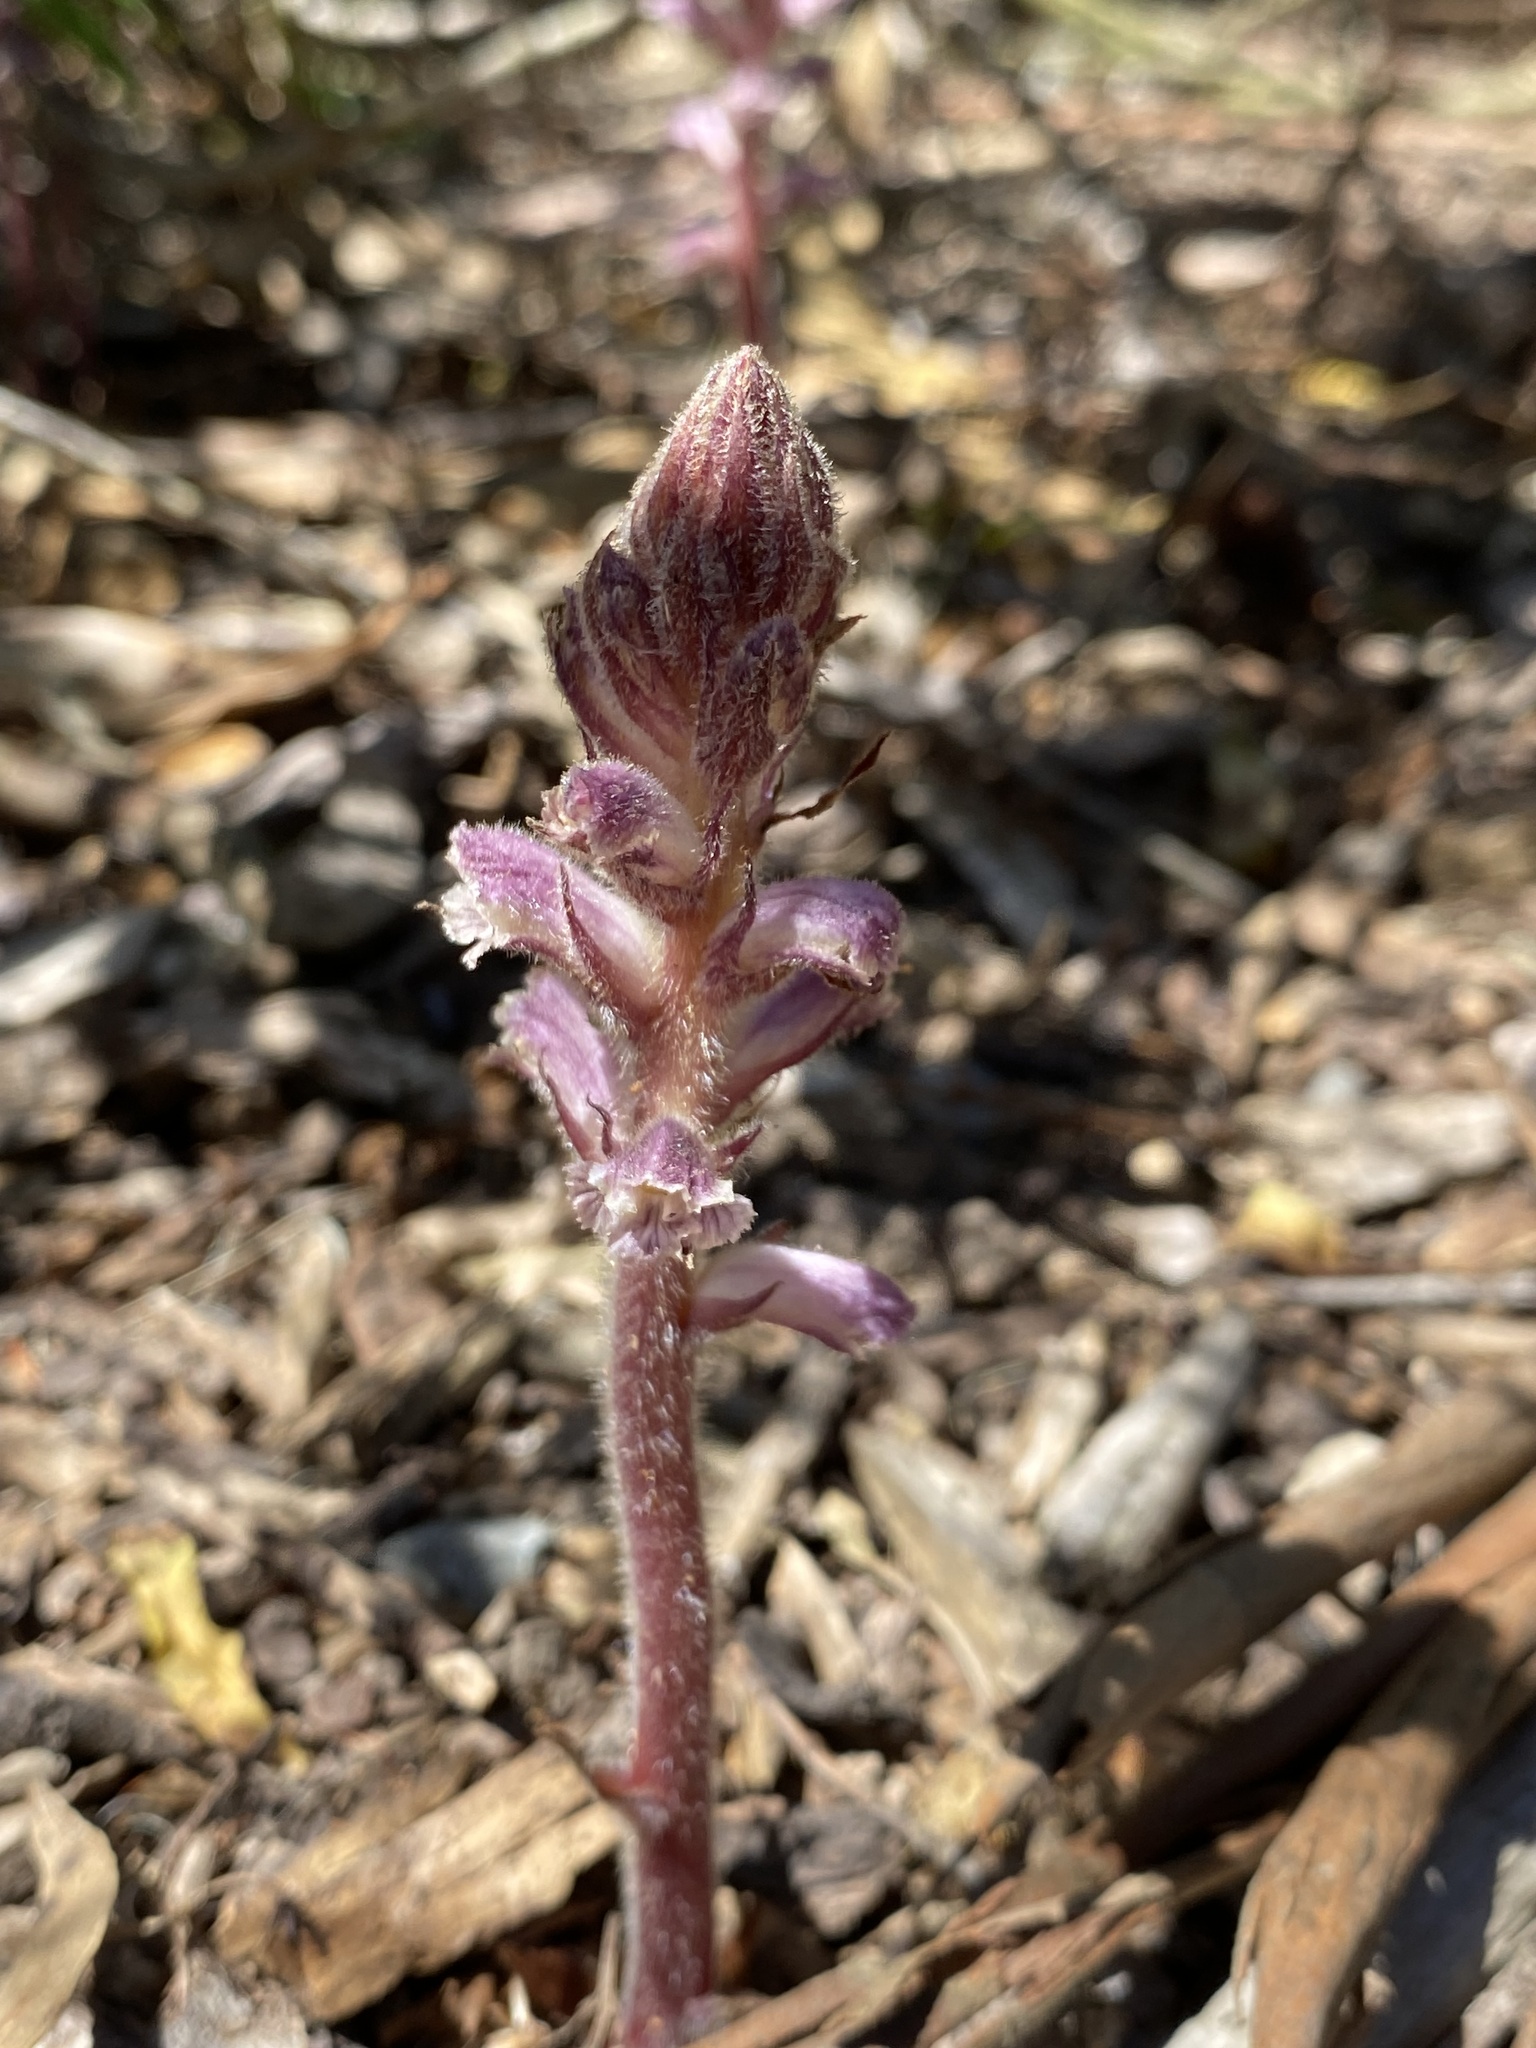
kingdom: Plantae
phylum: Tracheophyta
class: Magnoliopsida
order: Lamiales
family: Orobanchaceae
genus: Orobanche
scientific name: Orobanche minor
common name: Common broomrape
